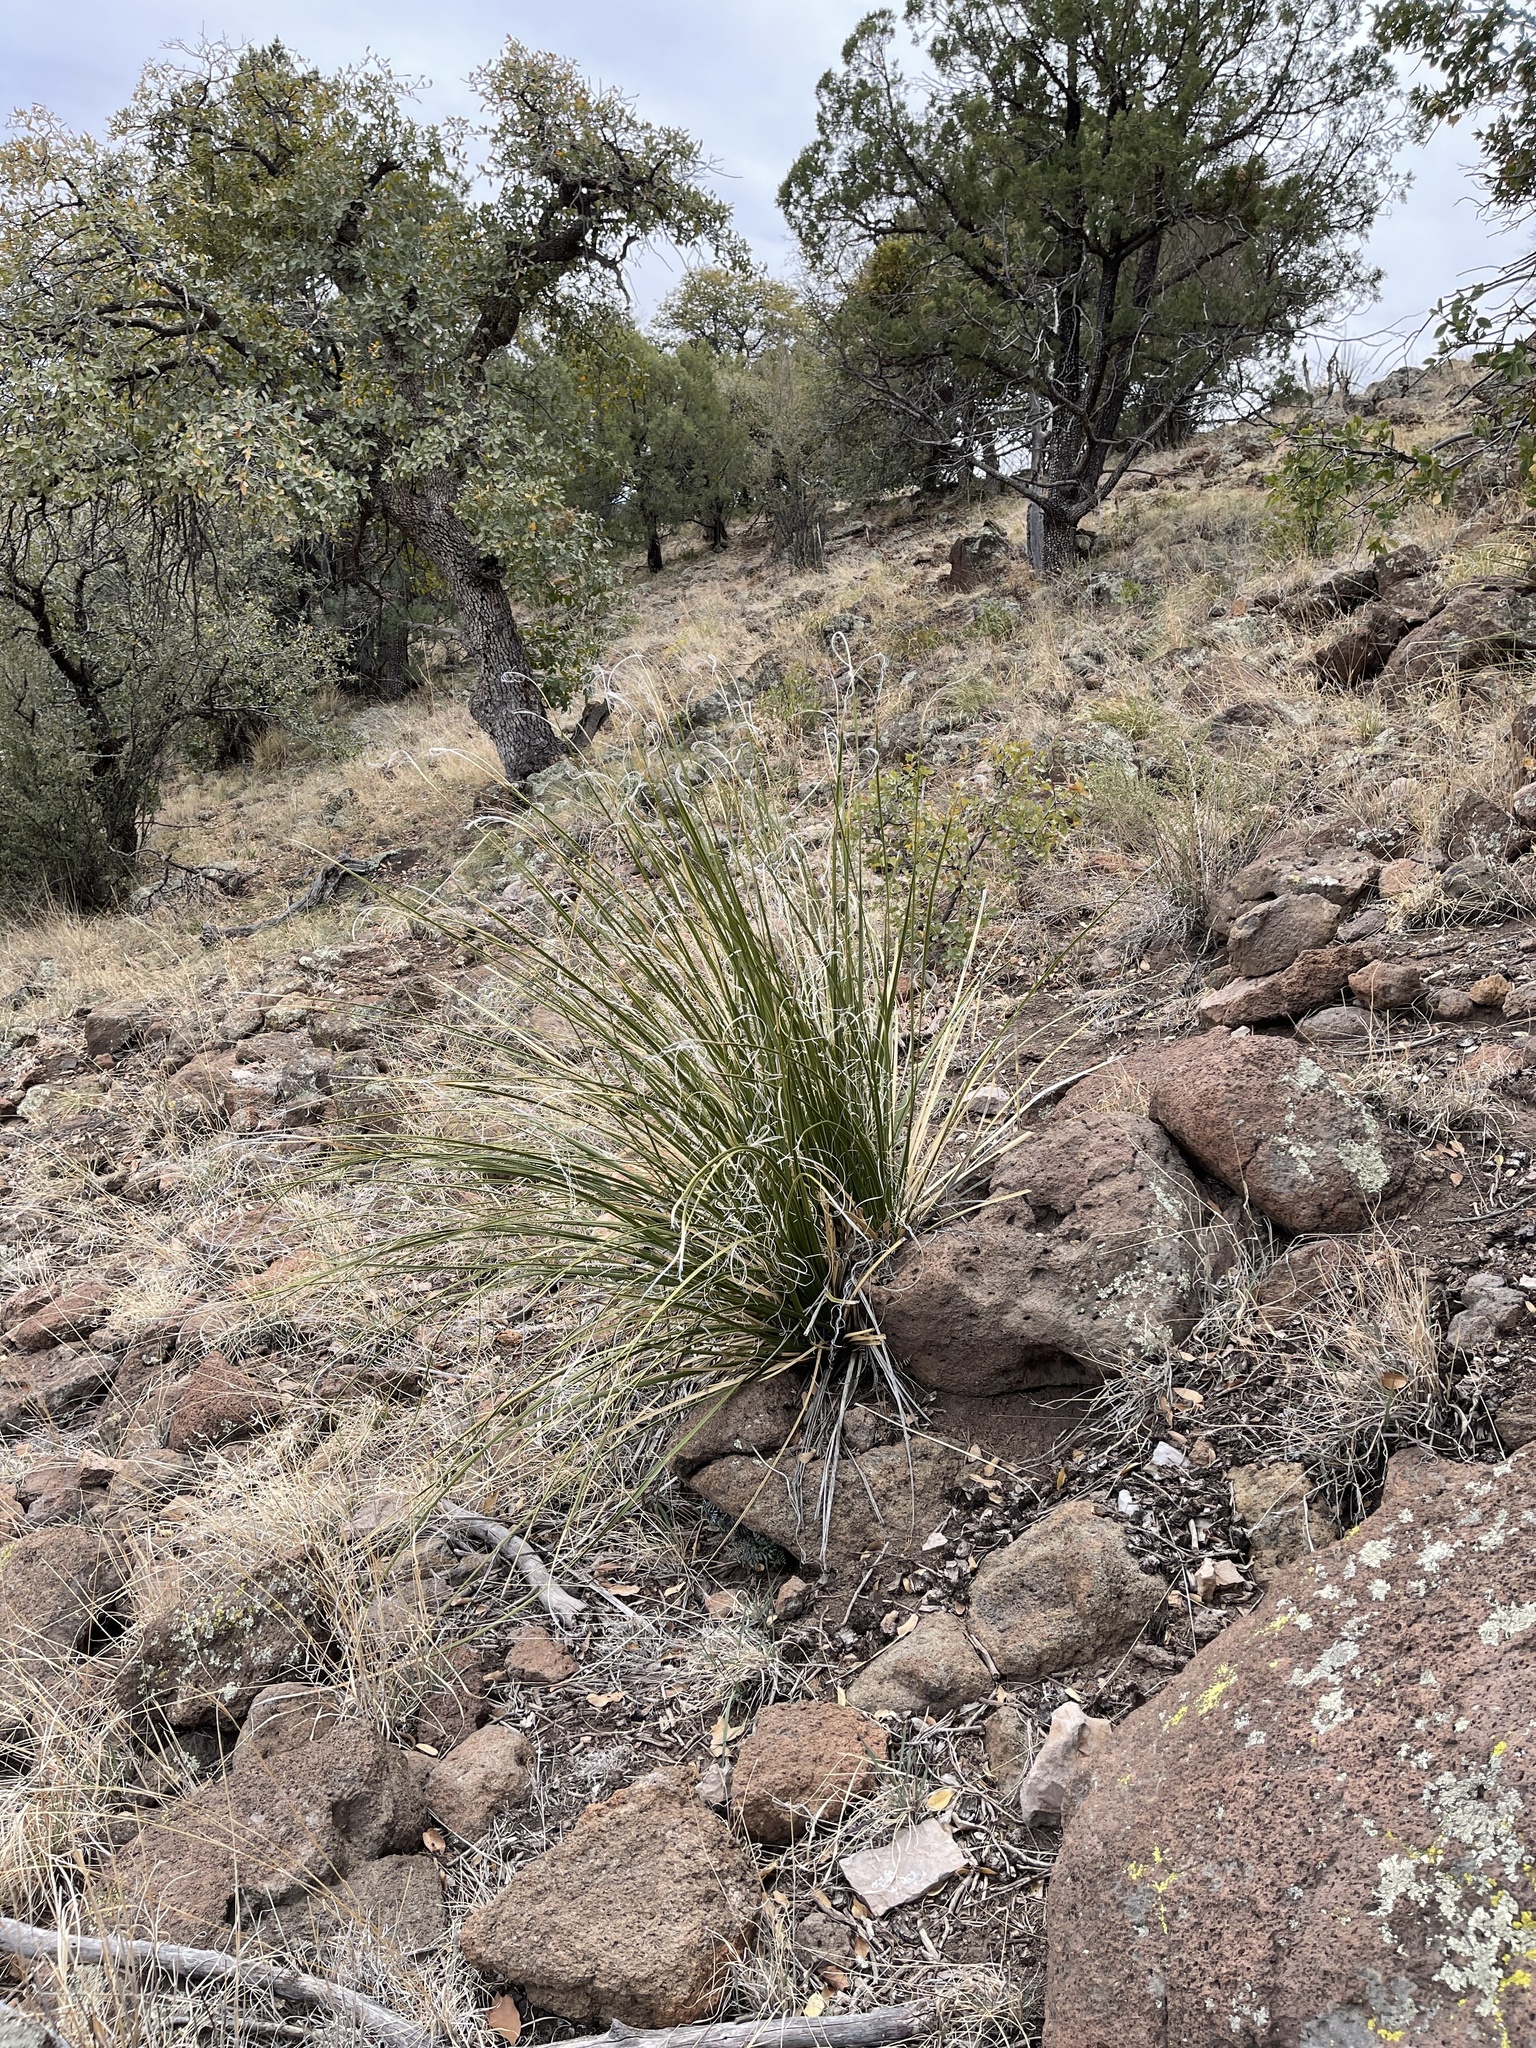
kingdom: Plantae
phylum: Tracheophyta
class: Liliopsida
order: Asparagales
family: Asparagaceae
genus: Nolina
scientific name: Nolina microcarpa
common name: Bear-grass
